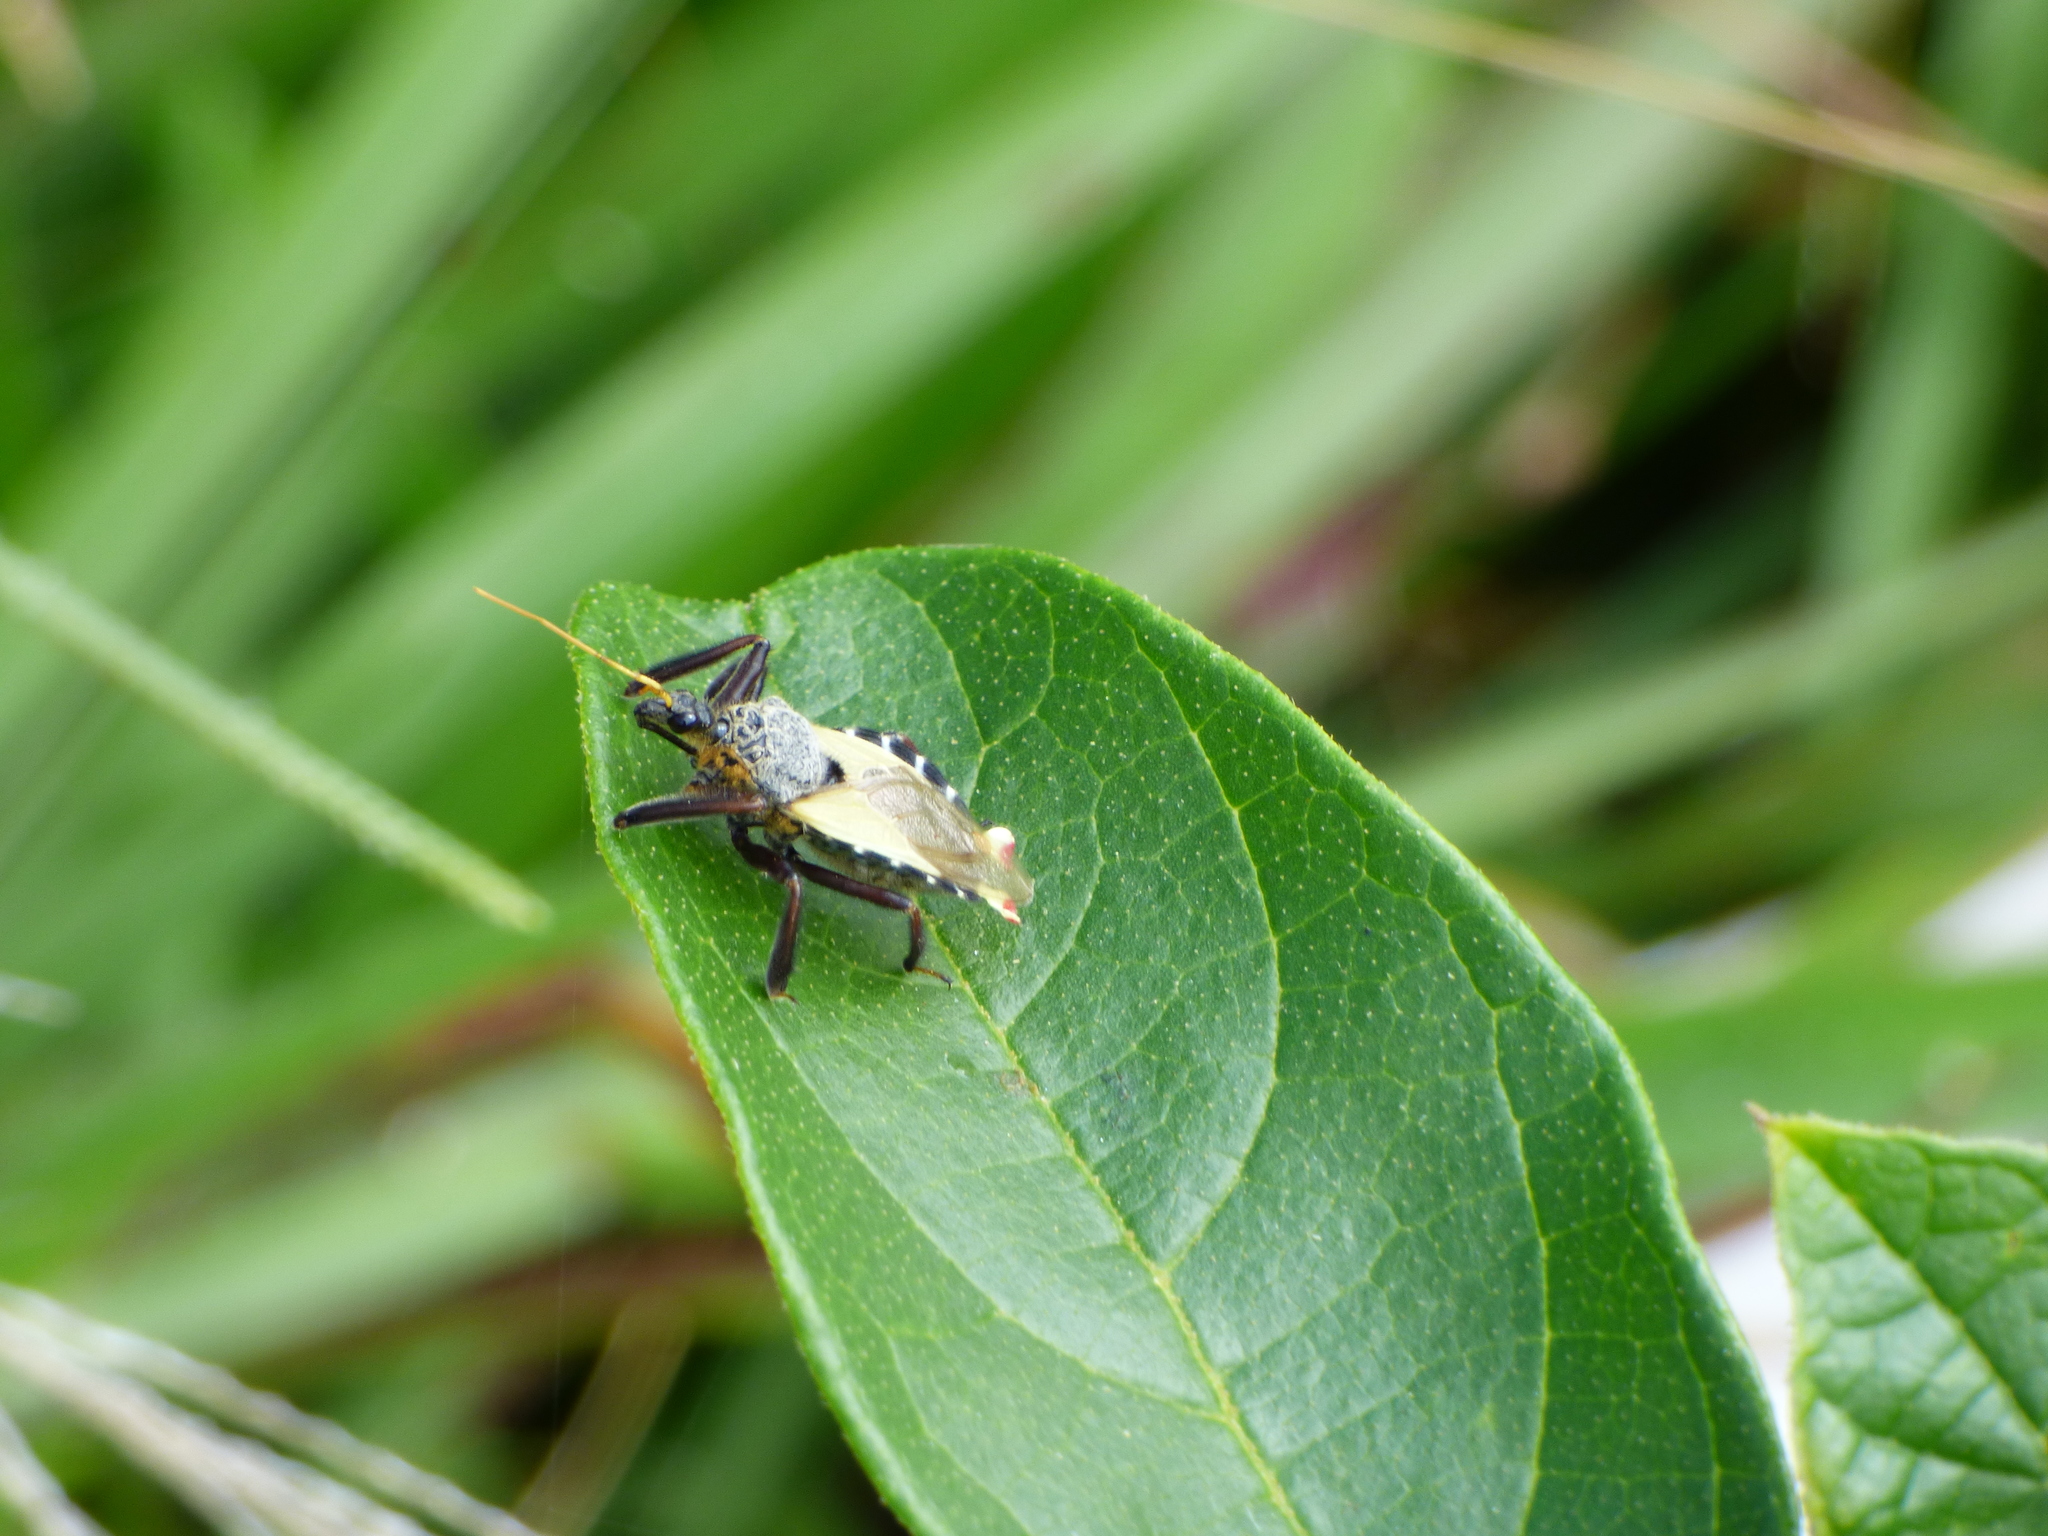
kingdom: Animalia
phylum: Arthropoda
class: Insecta
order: Hemiptera
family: Reduviidae
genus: Apiomerus
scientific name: Apiomerus ochropterus
